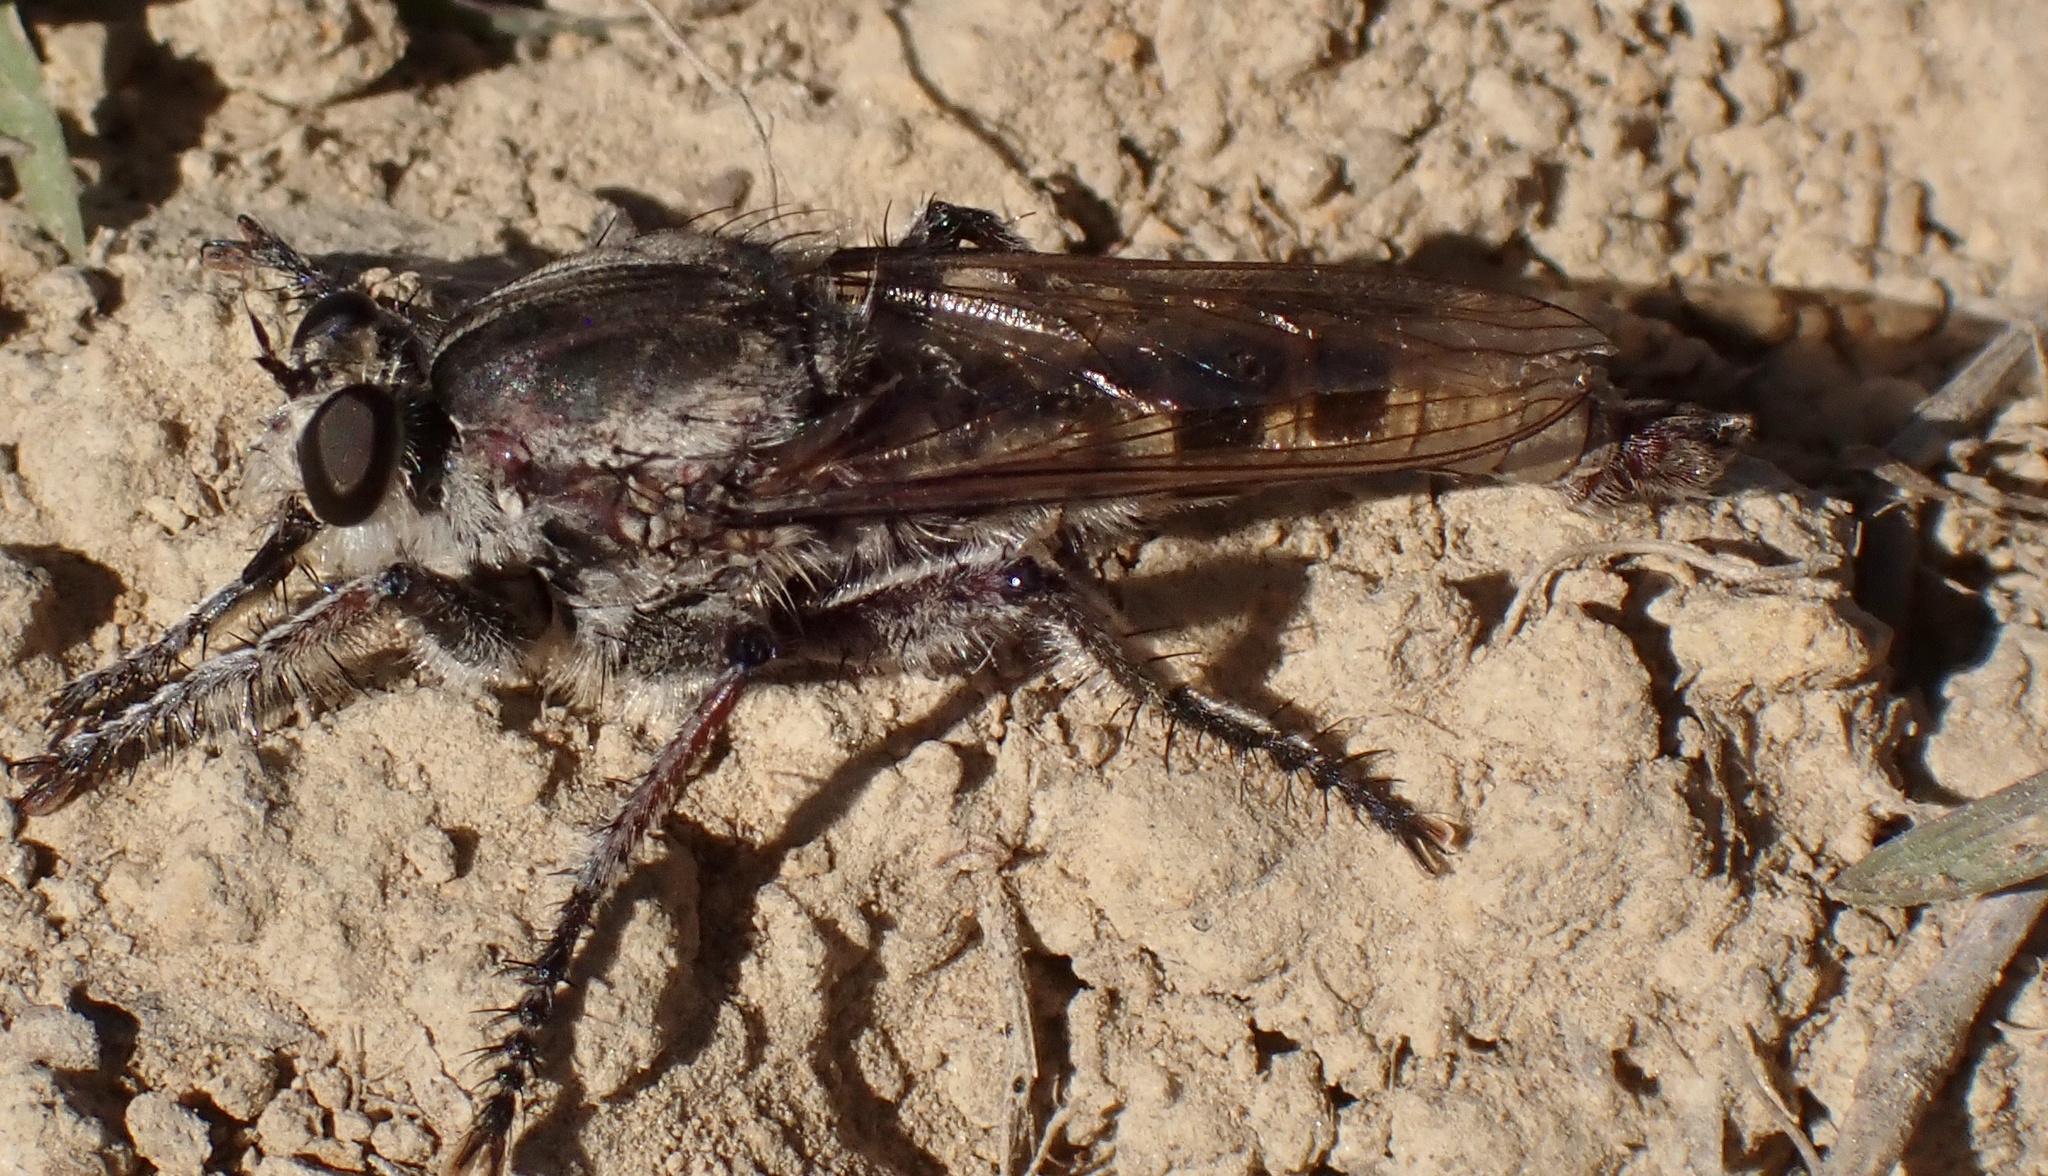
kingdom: Animalia
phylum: Arthropoda
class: Insecta
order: Diptera
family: Asilidae
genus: Triorla
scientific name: Triorla interrupta
